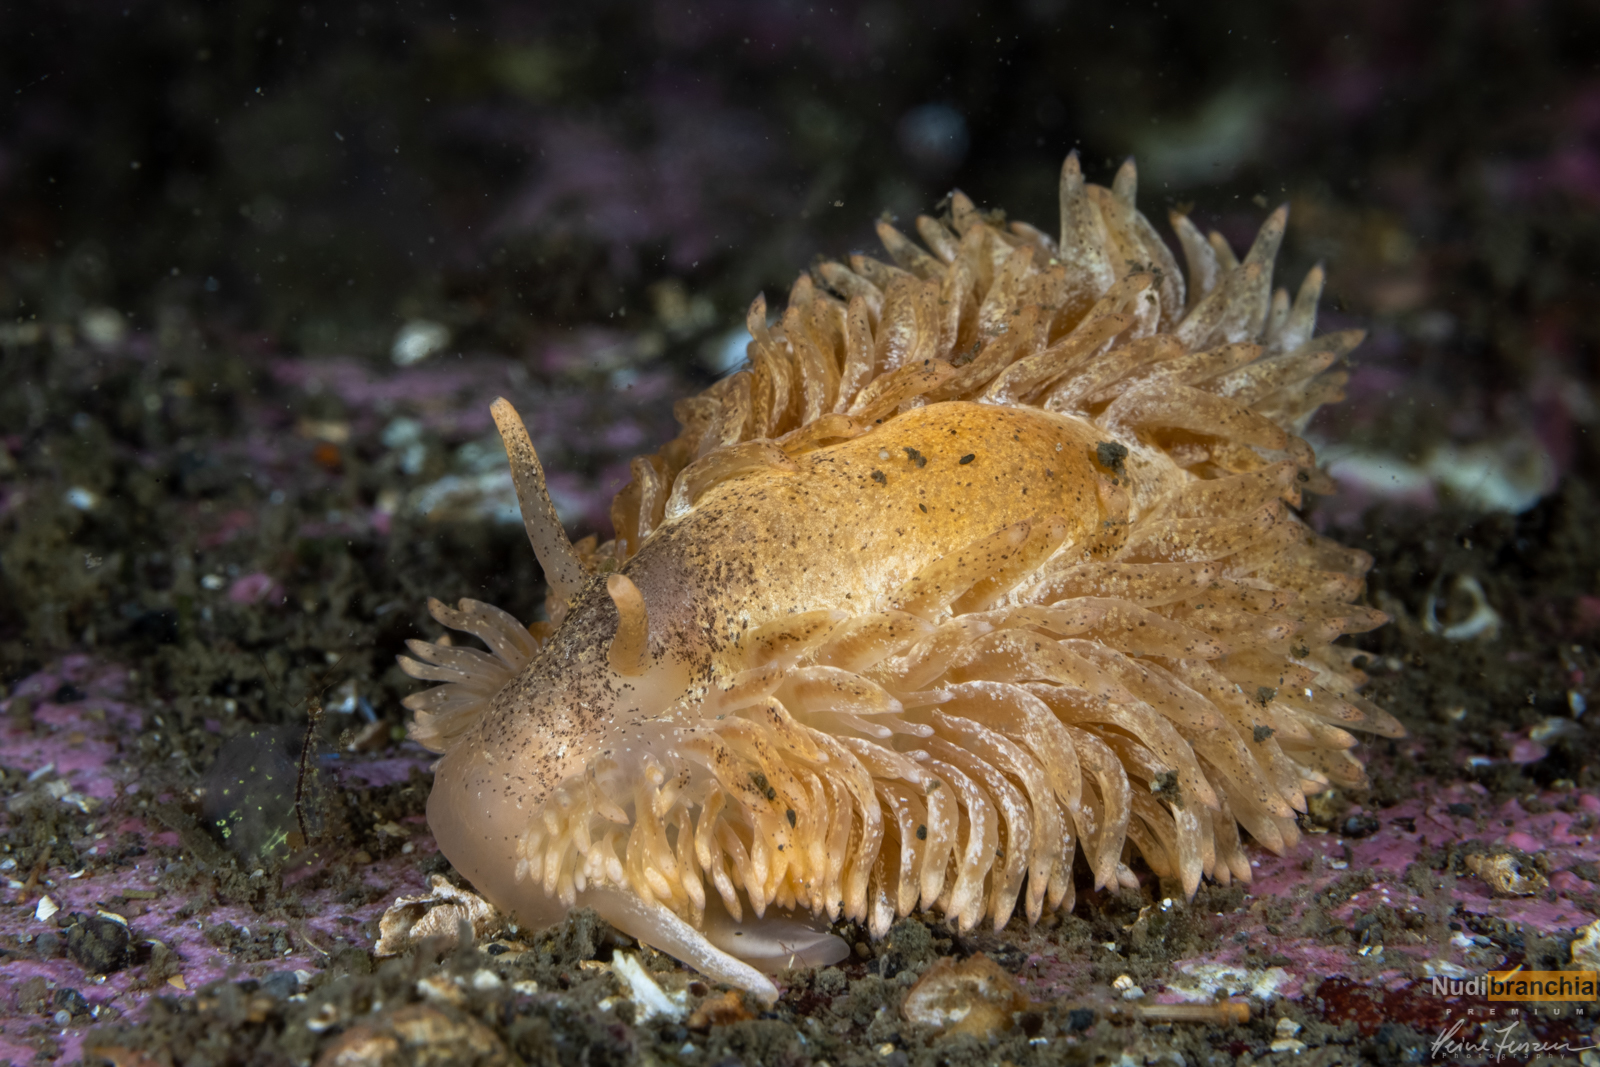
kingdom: Animalia
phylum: Mollusca
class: Gastropoda
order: Nudibranchia
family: Aeolidiidae
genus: Aeolidia
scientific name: Aeolidia papillosa
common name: Common grey sea slug
